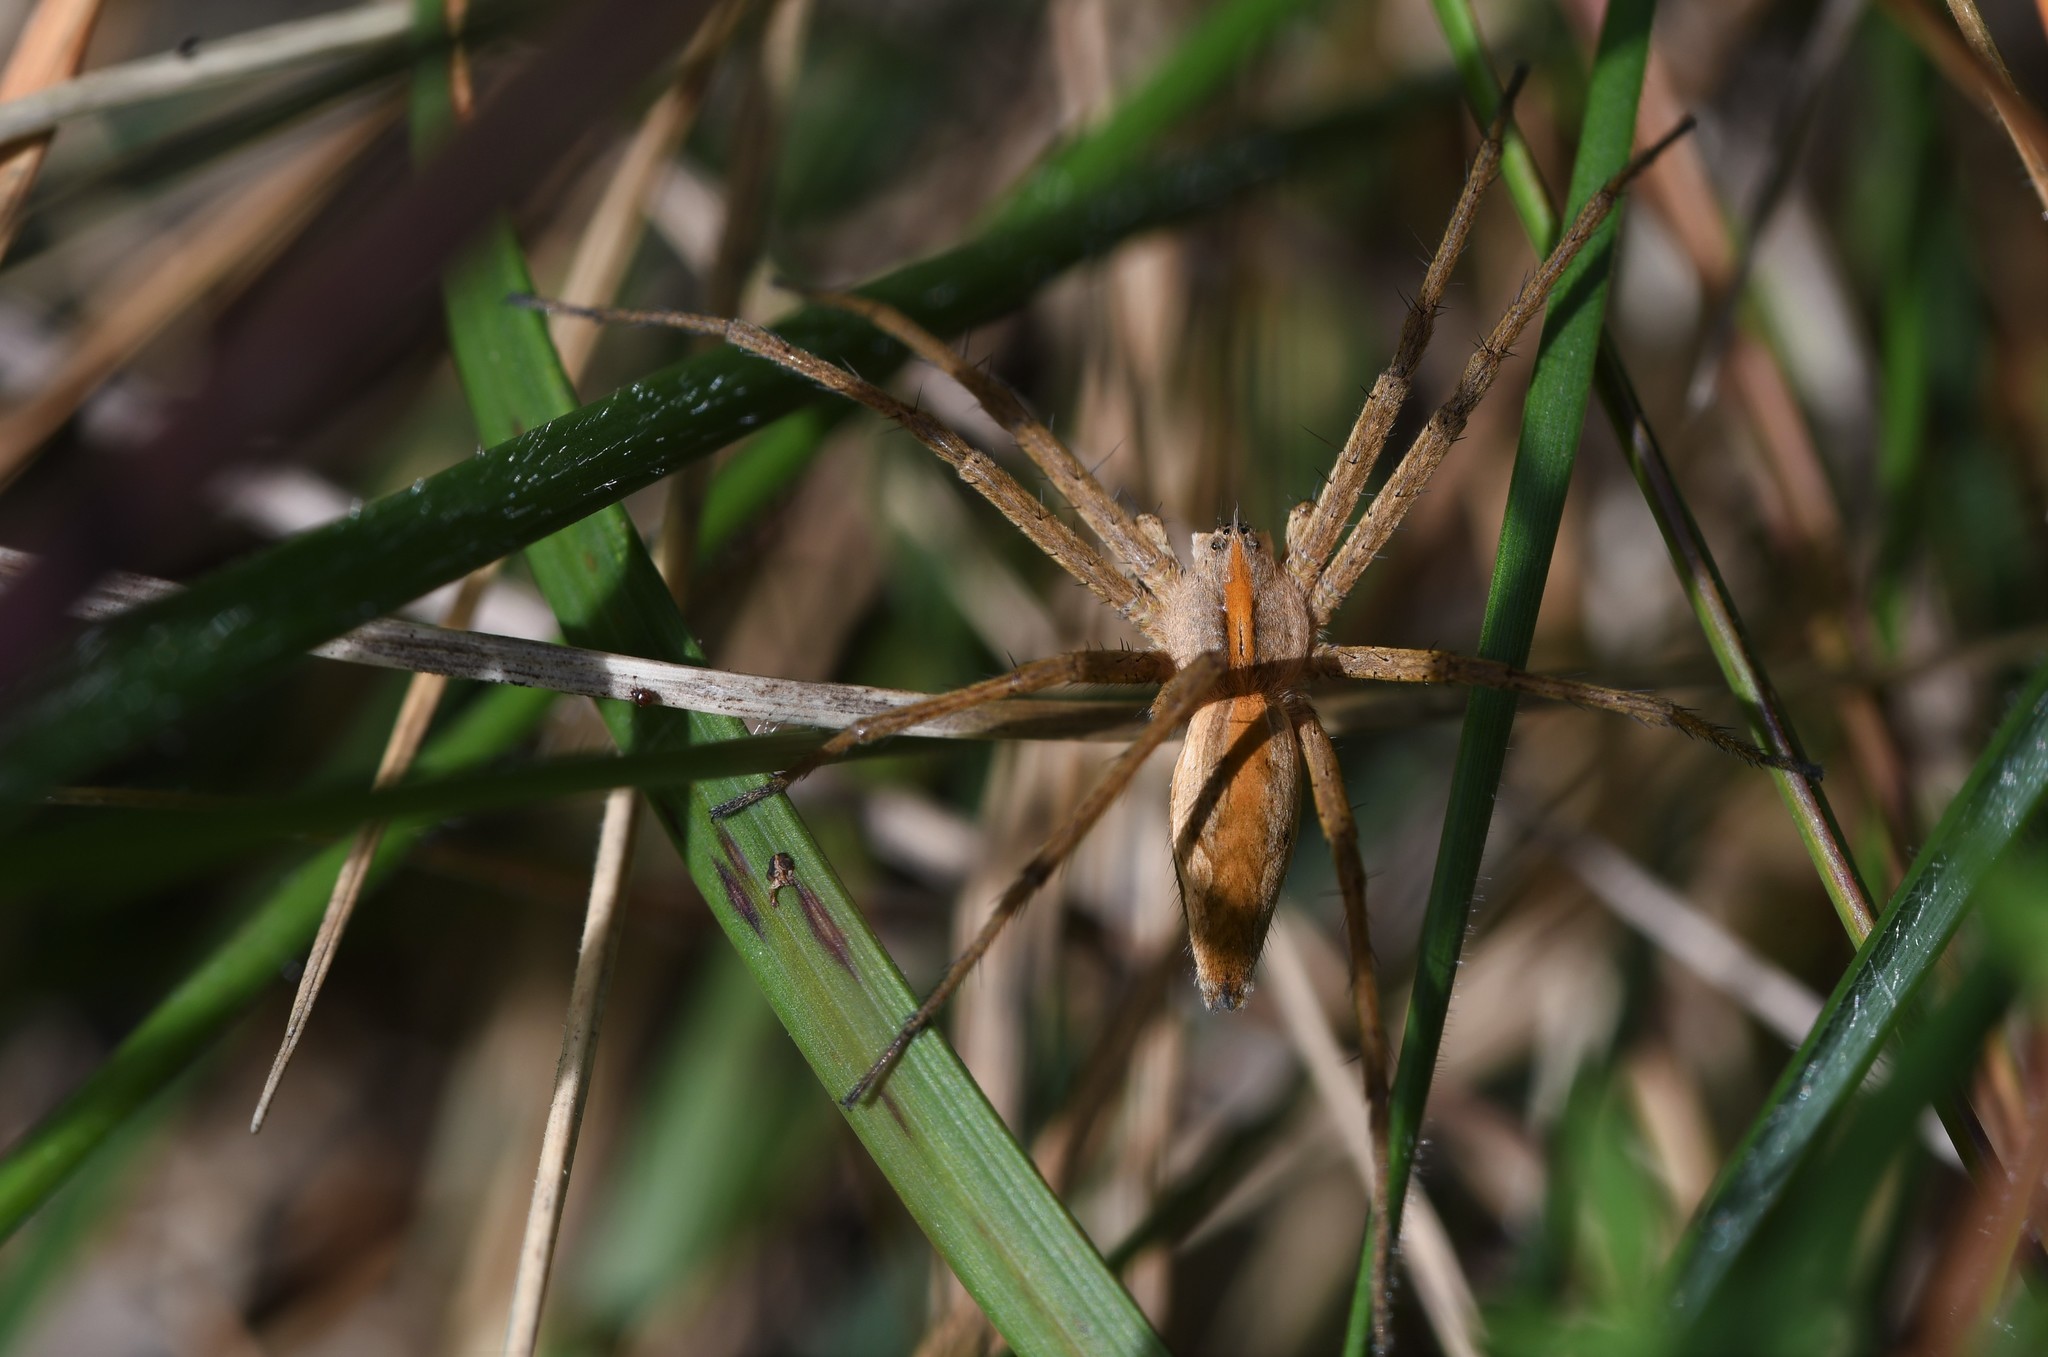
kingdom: Animalia
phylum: Arthropoda
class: Arachnida
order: Araneae
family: Pisauridae
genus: Pisaura
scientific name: Pisaura mirabilis
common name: Tent spider
